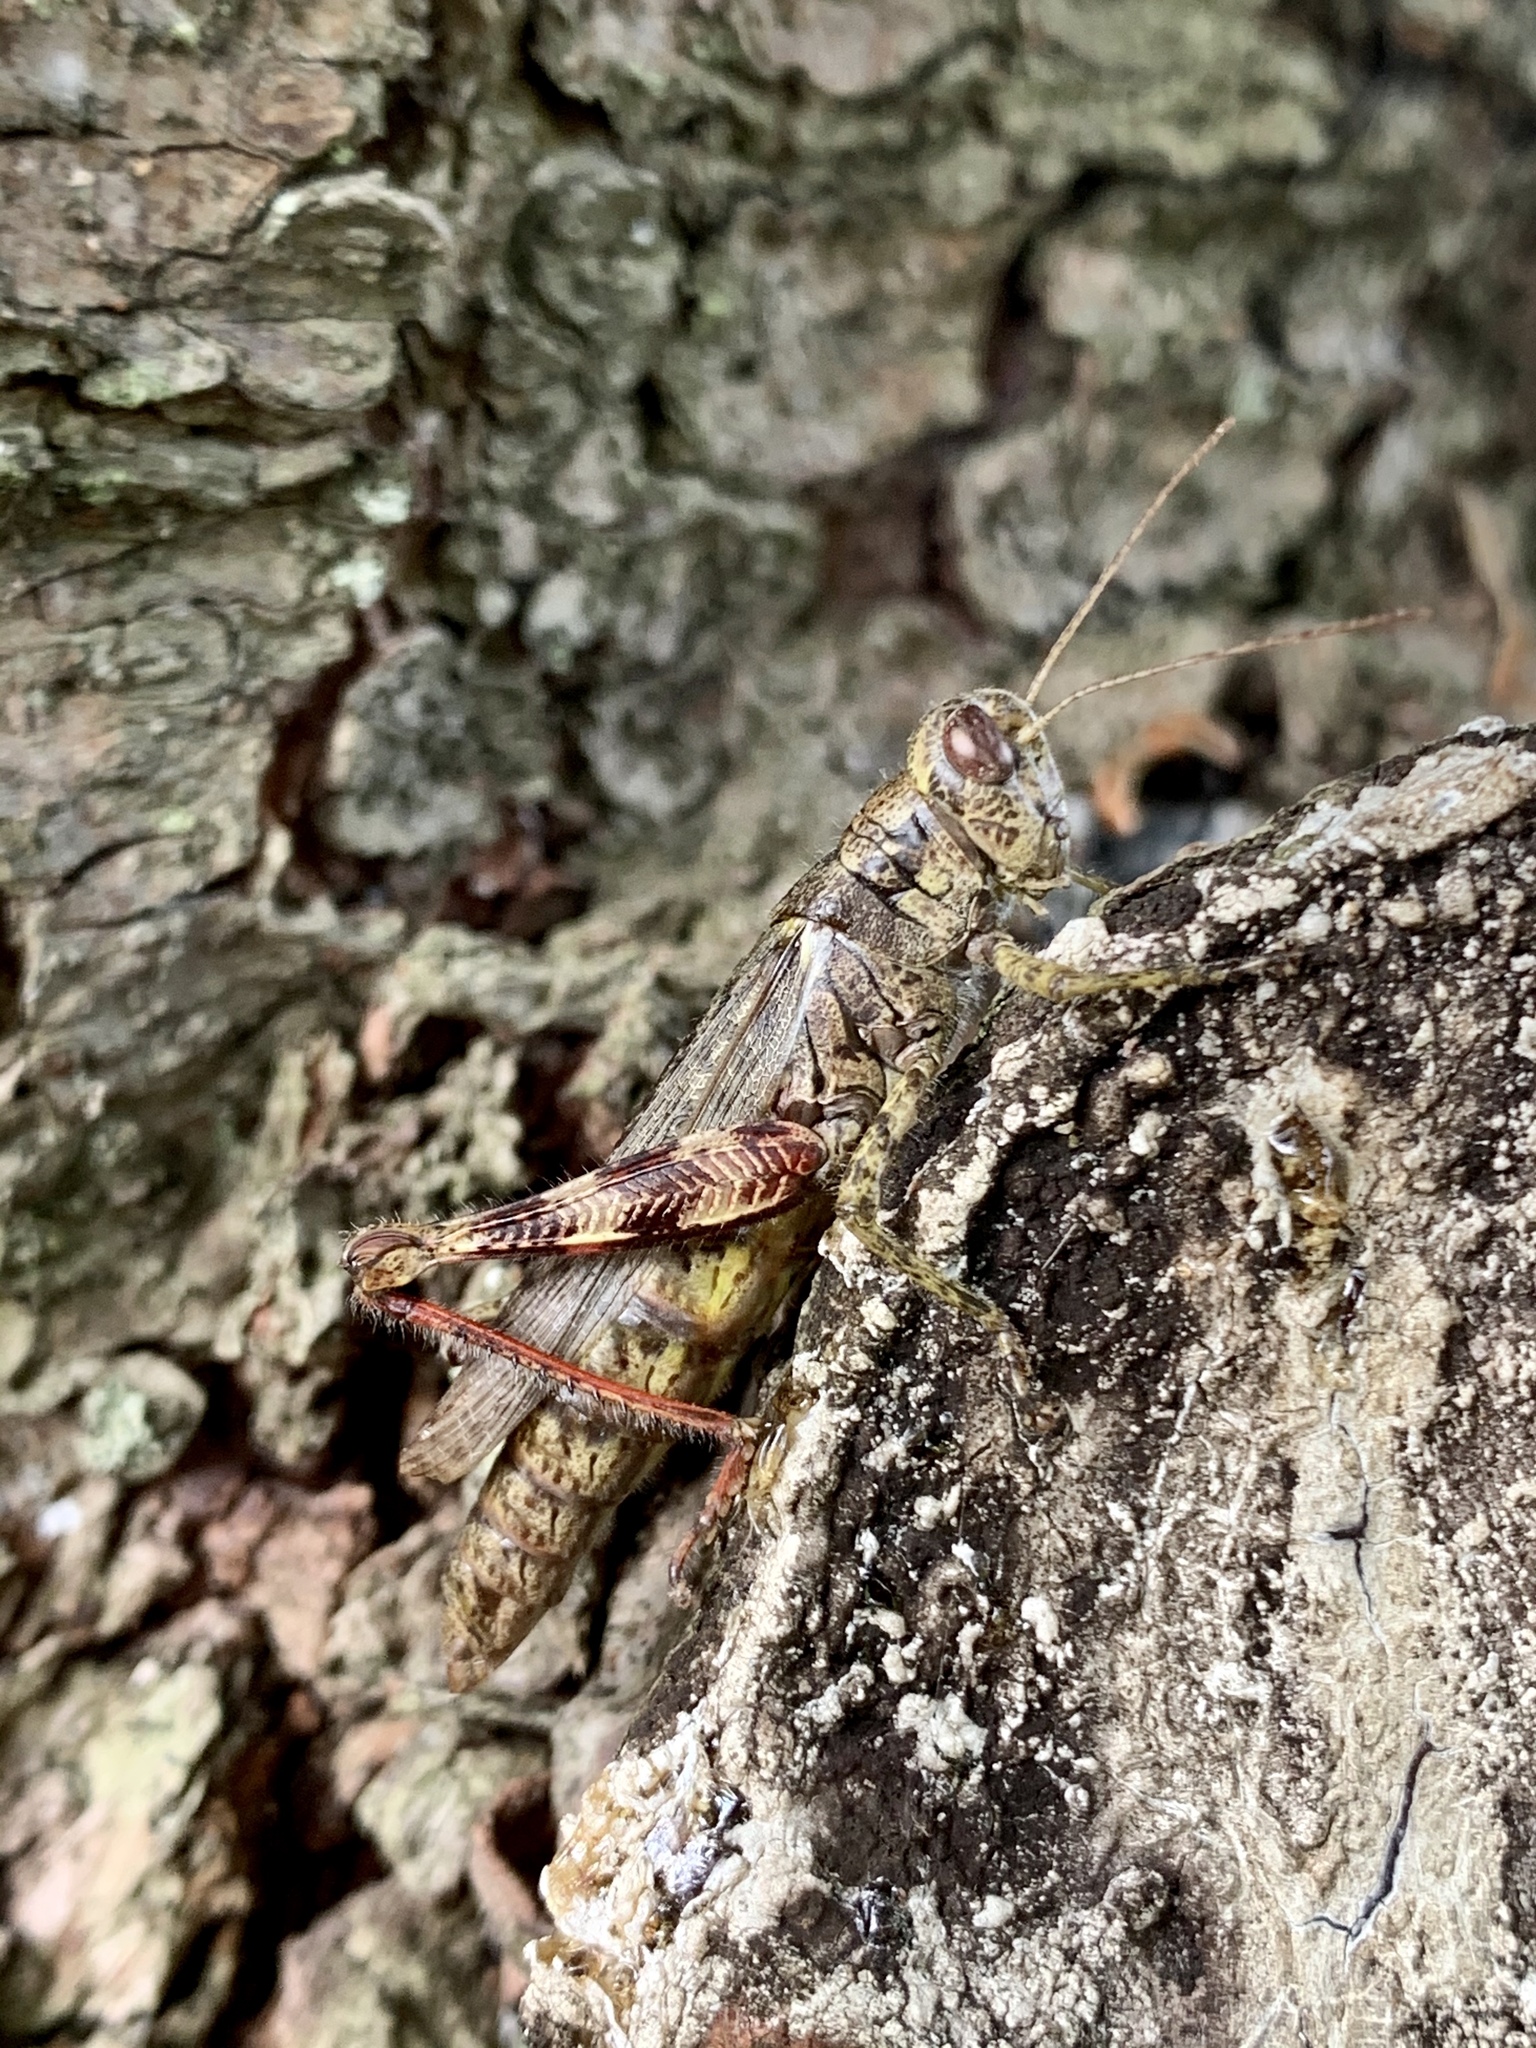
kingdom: Animalia
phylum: Arthropoda
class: Insecta
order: Orthoptera
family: Acrididae
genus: Melanoplus
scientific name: Melanoplus punctulatus
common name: Pine-tree spur-throat grasshopper
